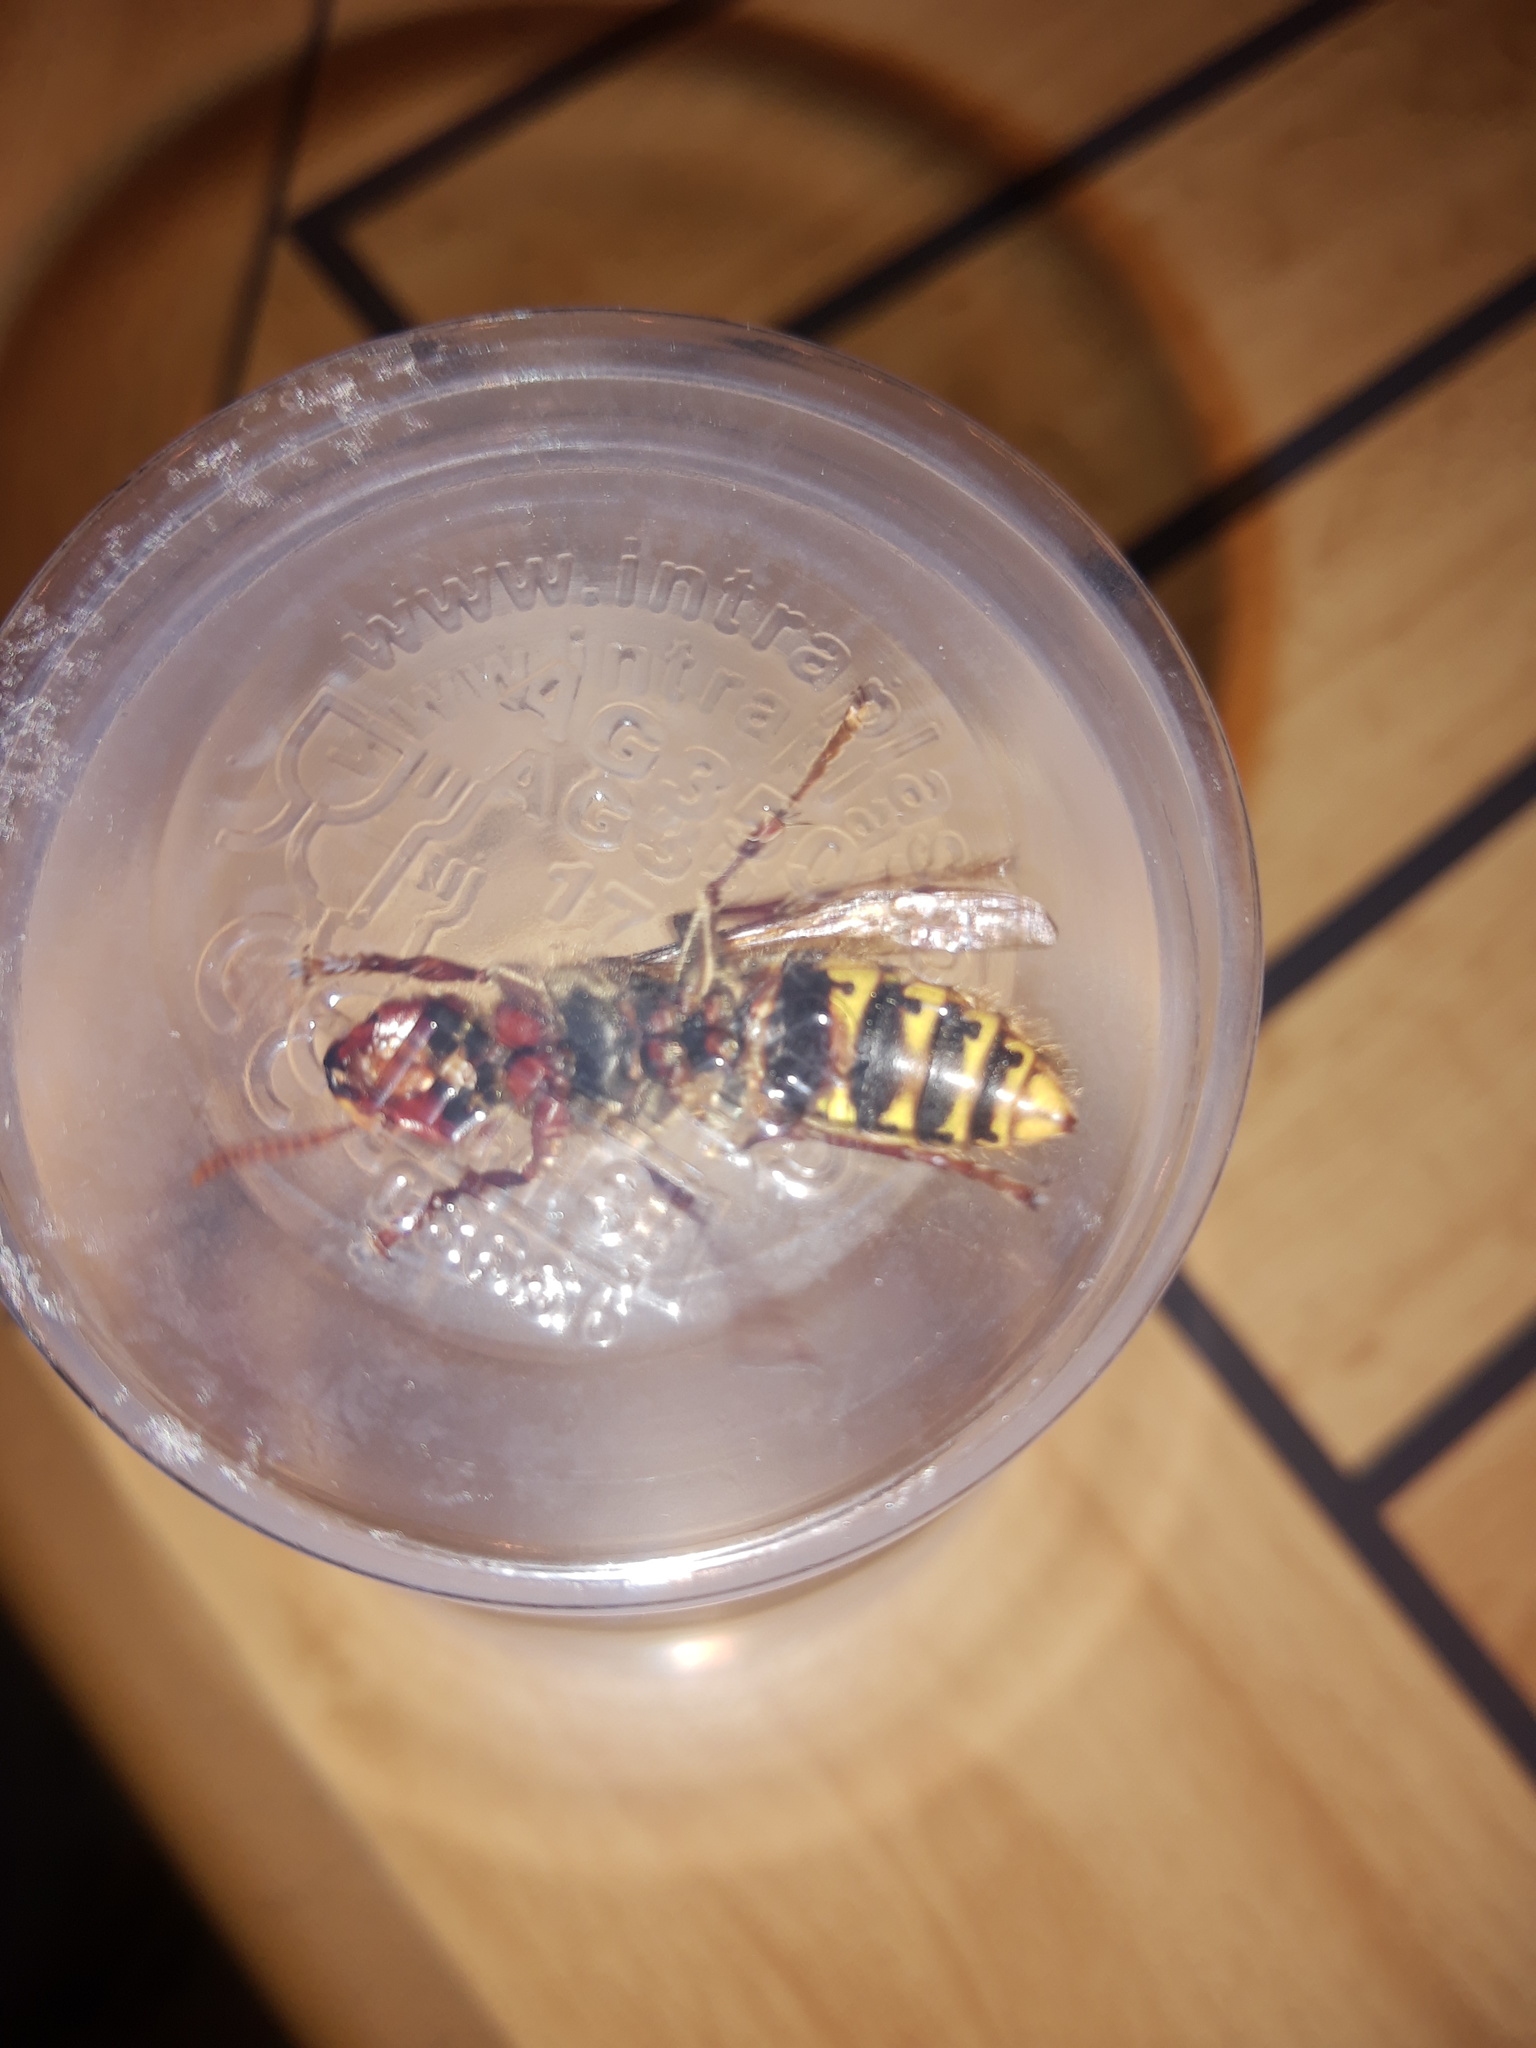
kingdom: Animalia
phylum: Arthropoda
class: Insecta
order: Hymenoptera
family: Vespidae
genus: Vespa
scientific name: Vespa crabro
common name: Hornet
